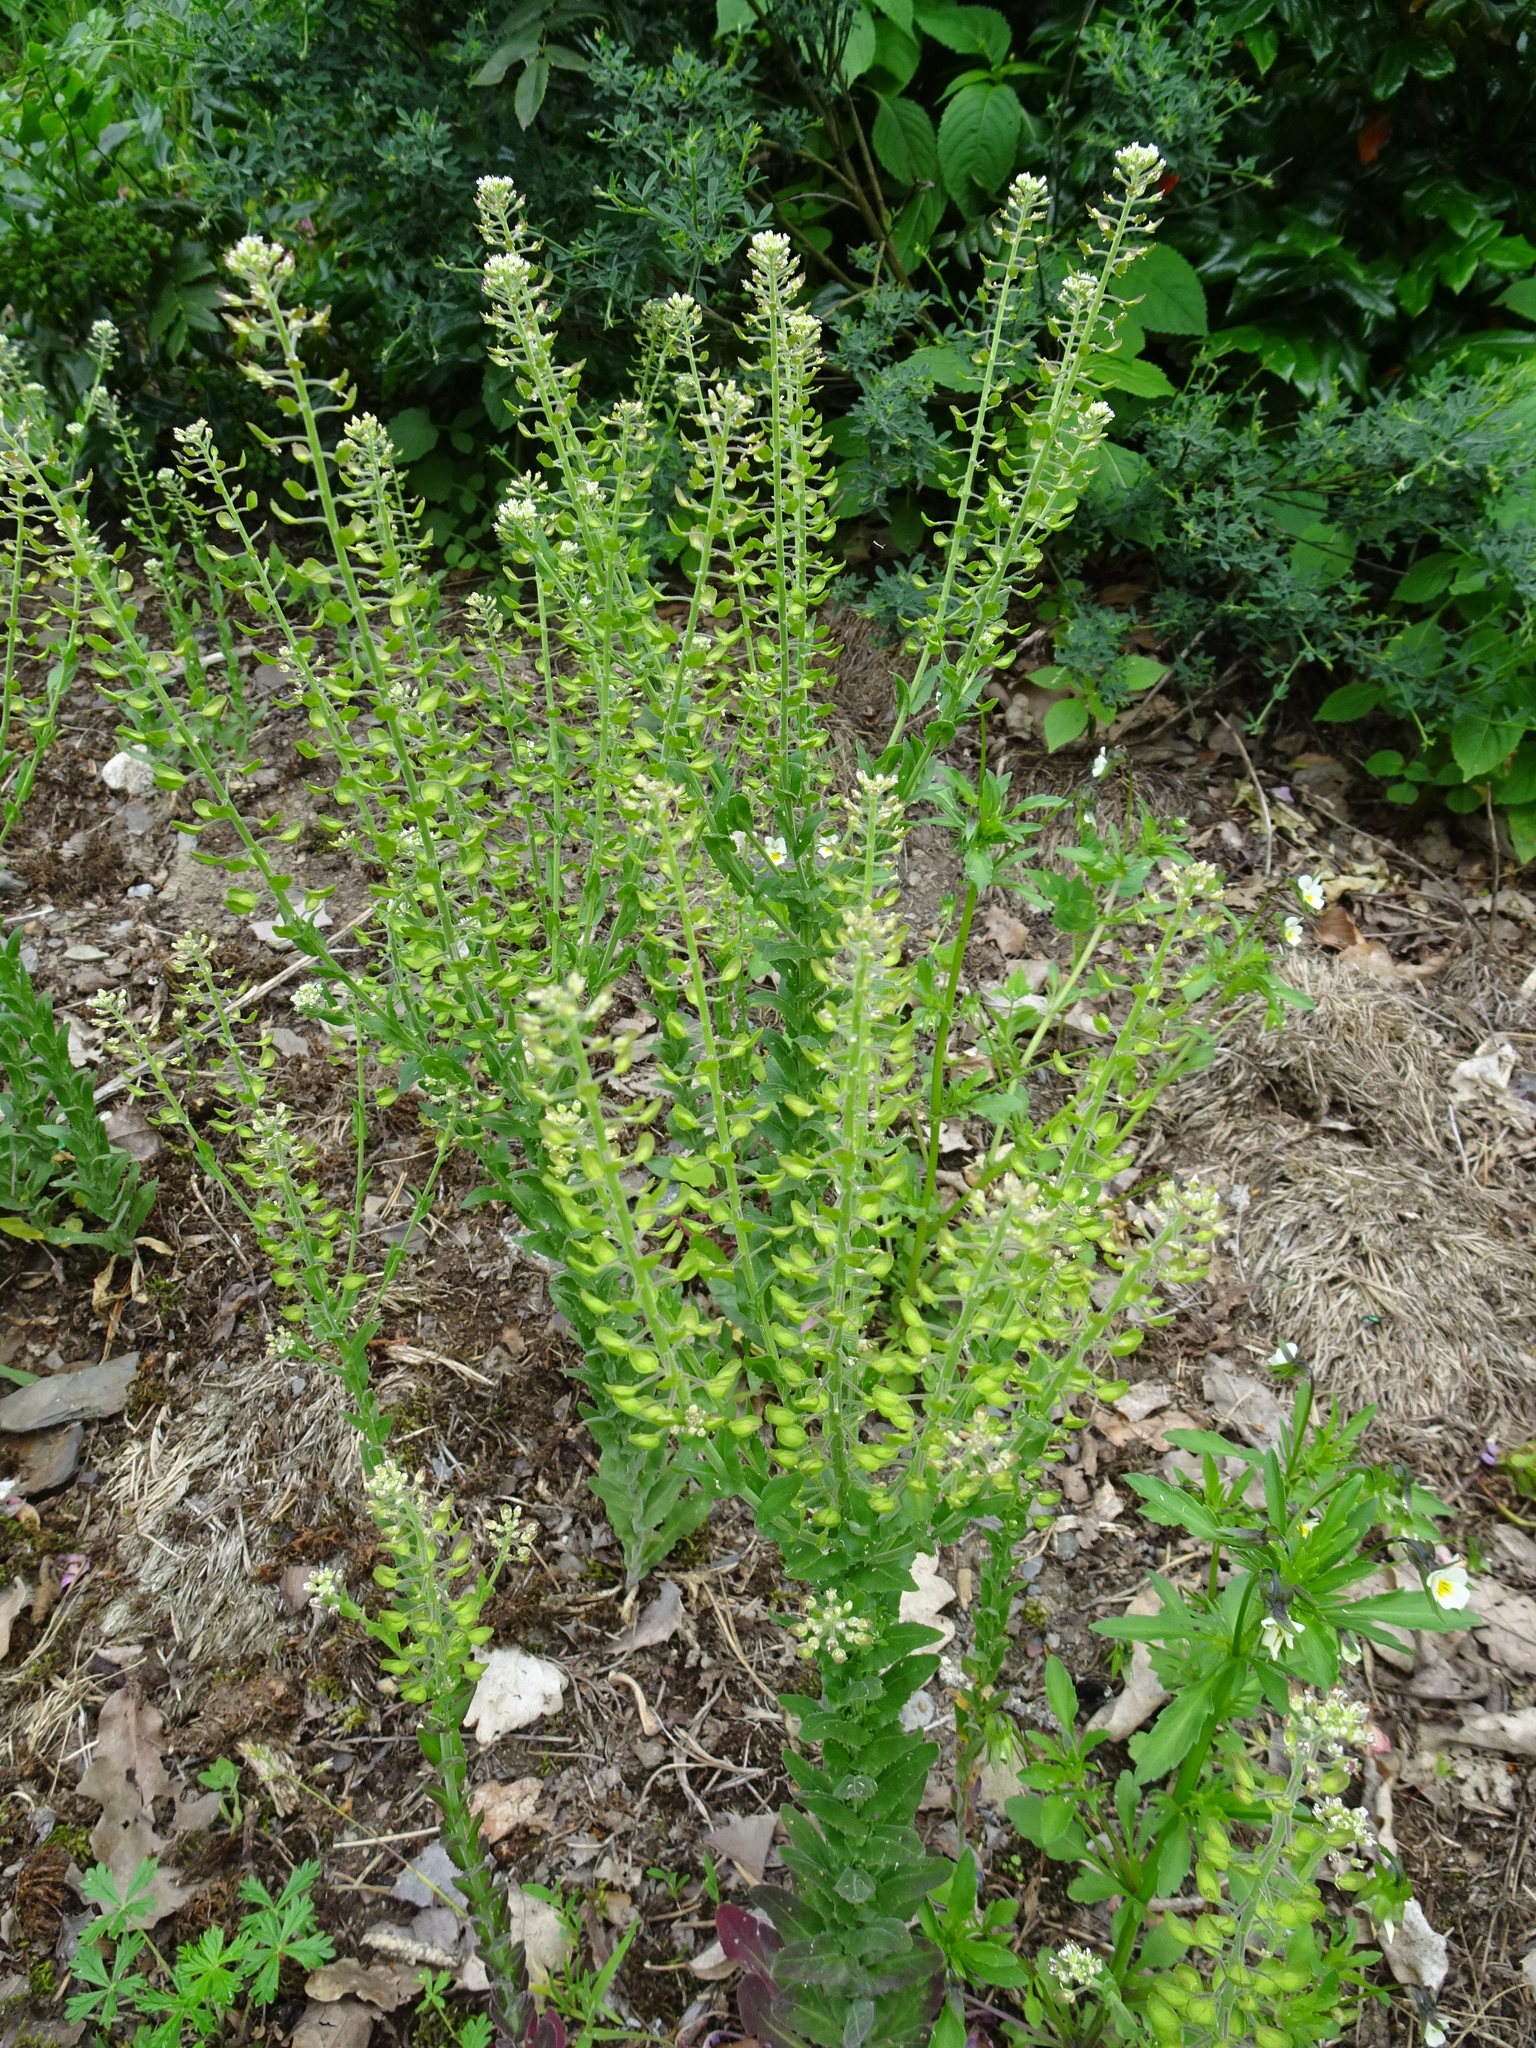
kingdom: Plantae
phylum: Tracheophyta
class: Magnoliopsida
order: Brassicales
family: Brassicaceae
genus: Lepidium
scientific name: Lepidium campestre
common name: Field pepperwort
